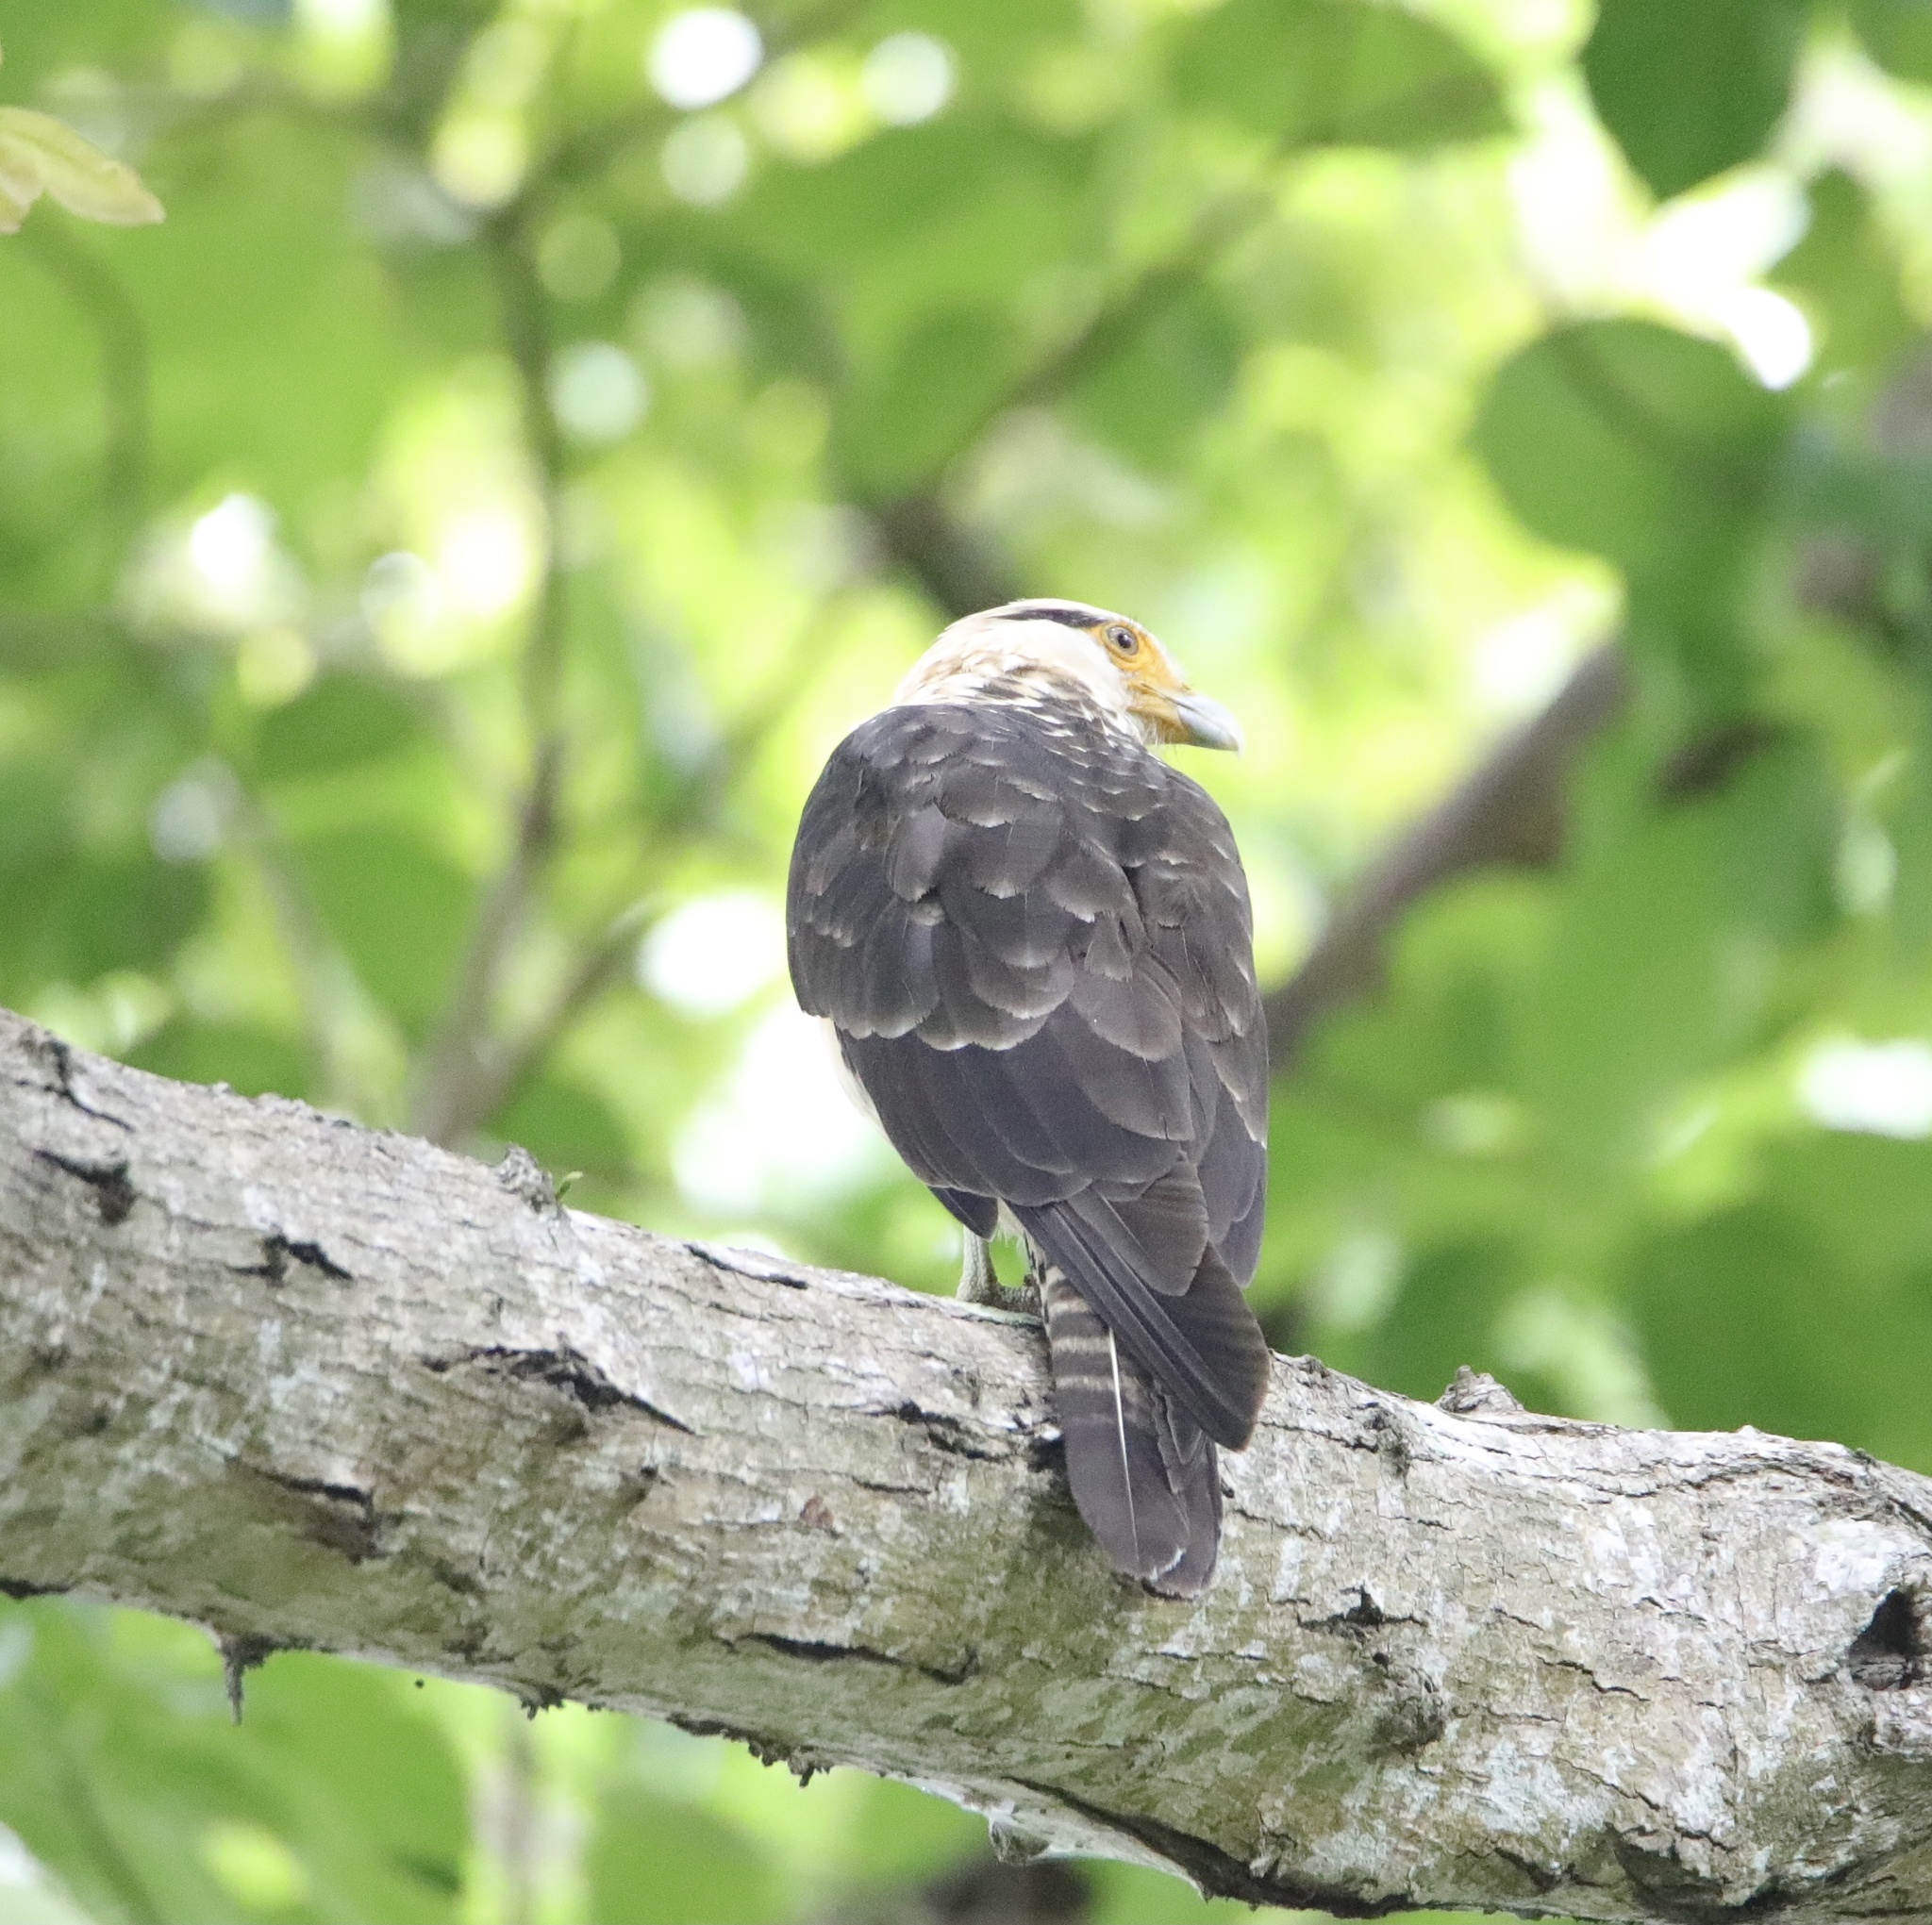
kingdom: Animalia
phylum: Chordata
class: Aves
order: Falconiformes
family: Falconidae
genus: Daptrius
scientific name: Daptrius
